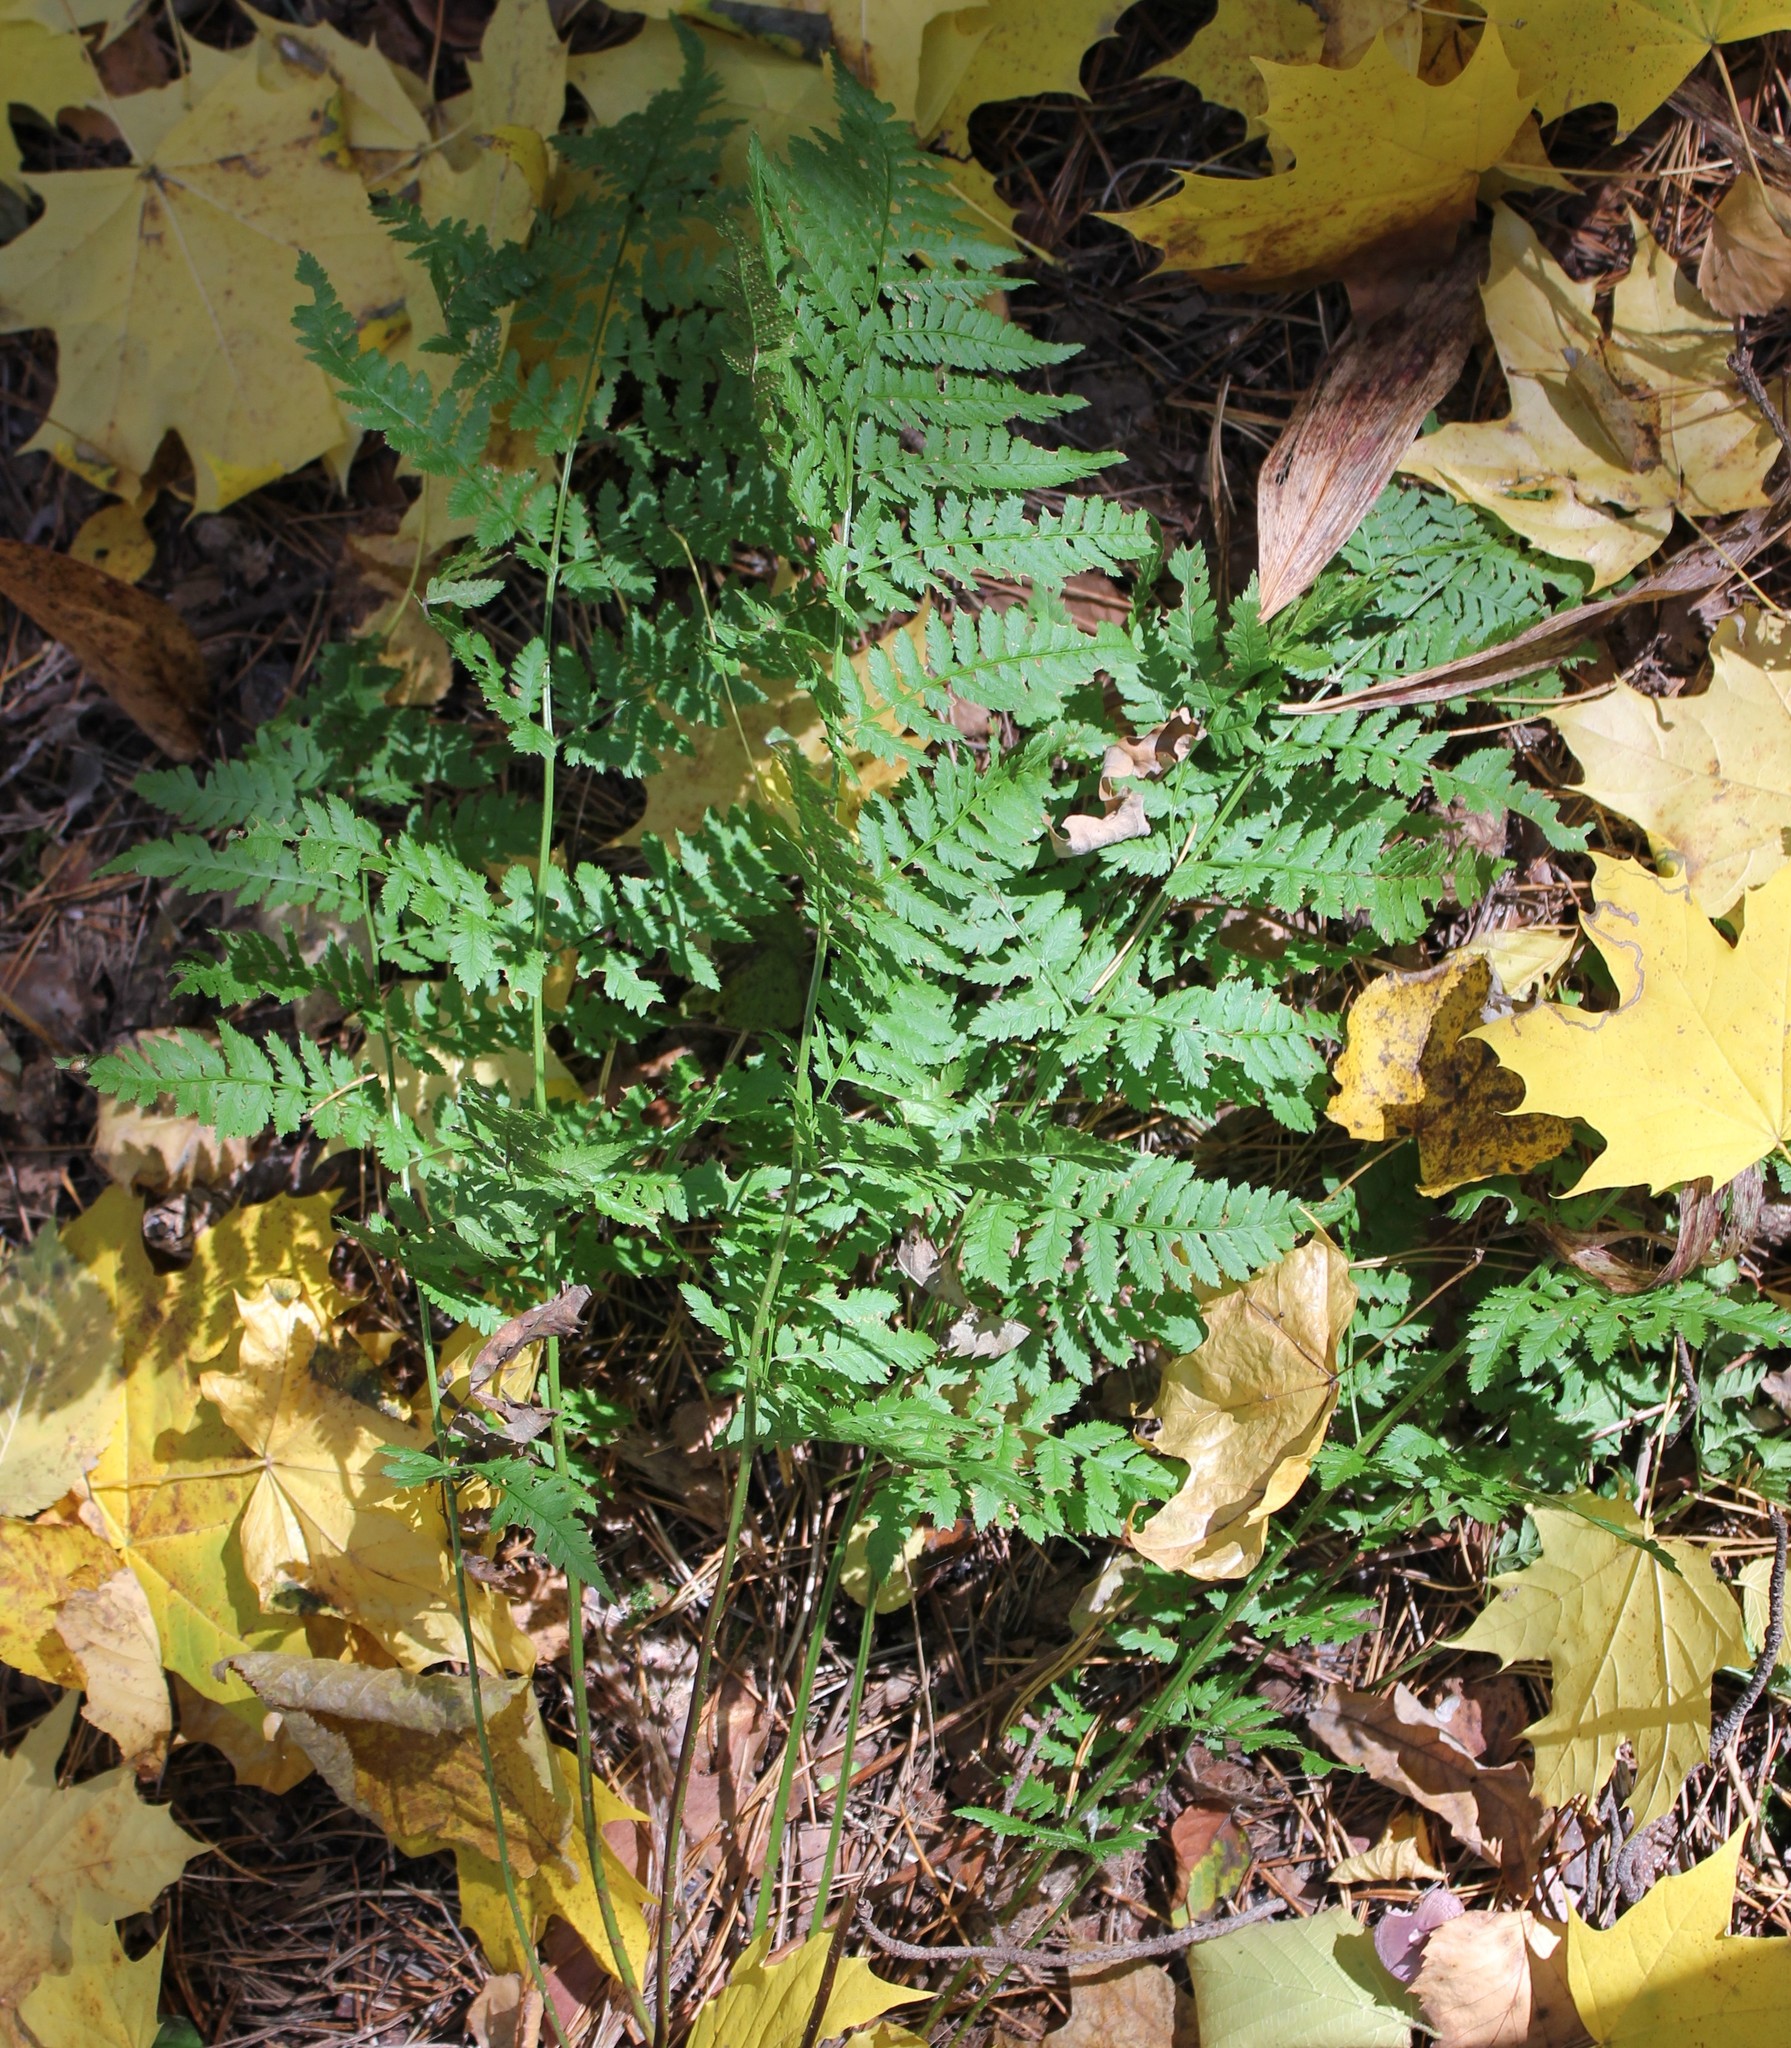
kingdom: Plantae
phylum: Tracheophyta
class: Polypodiopsida
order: Polypodiales
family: Dryopteridaceae
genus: Dryopteris
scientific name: Dryopteris carthusiana
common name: Narrow buckler-fern
